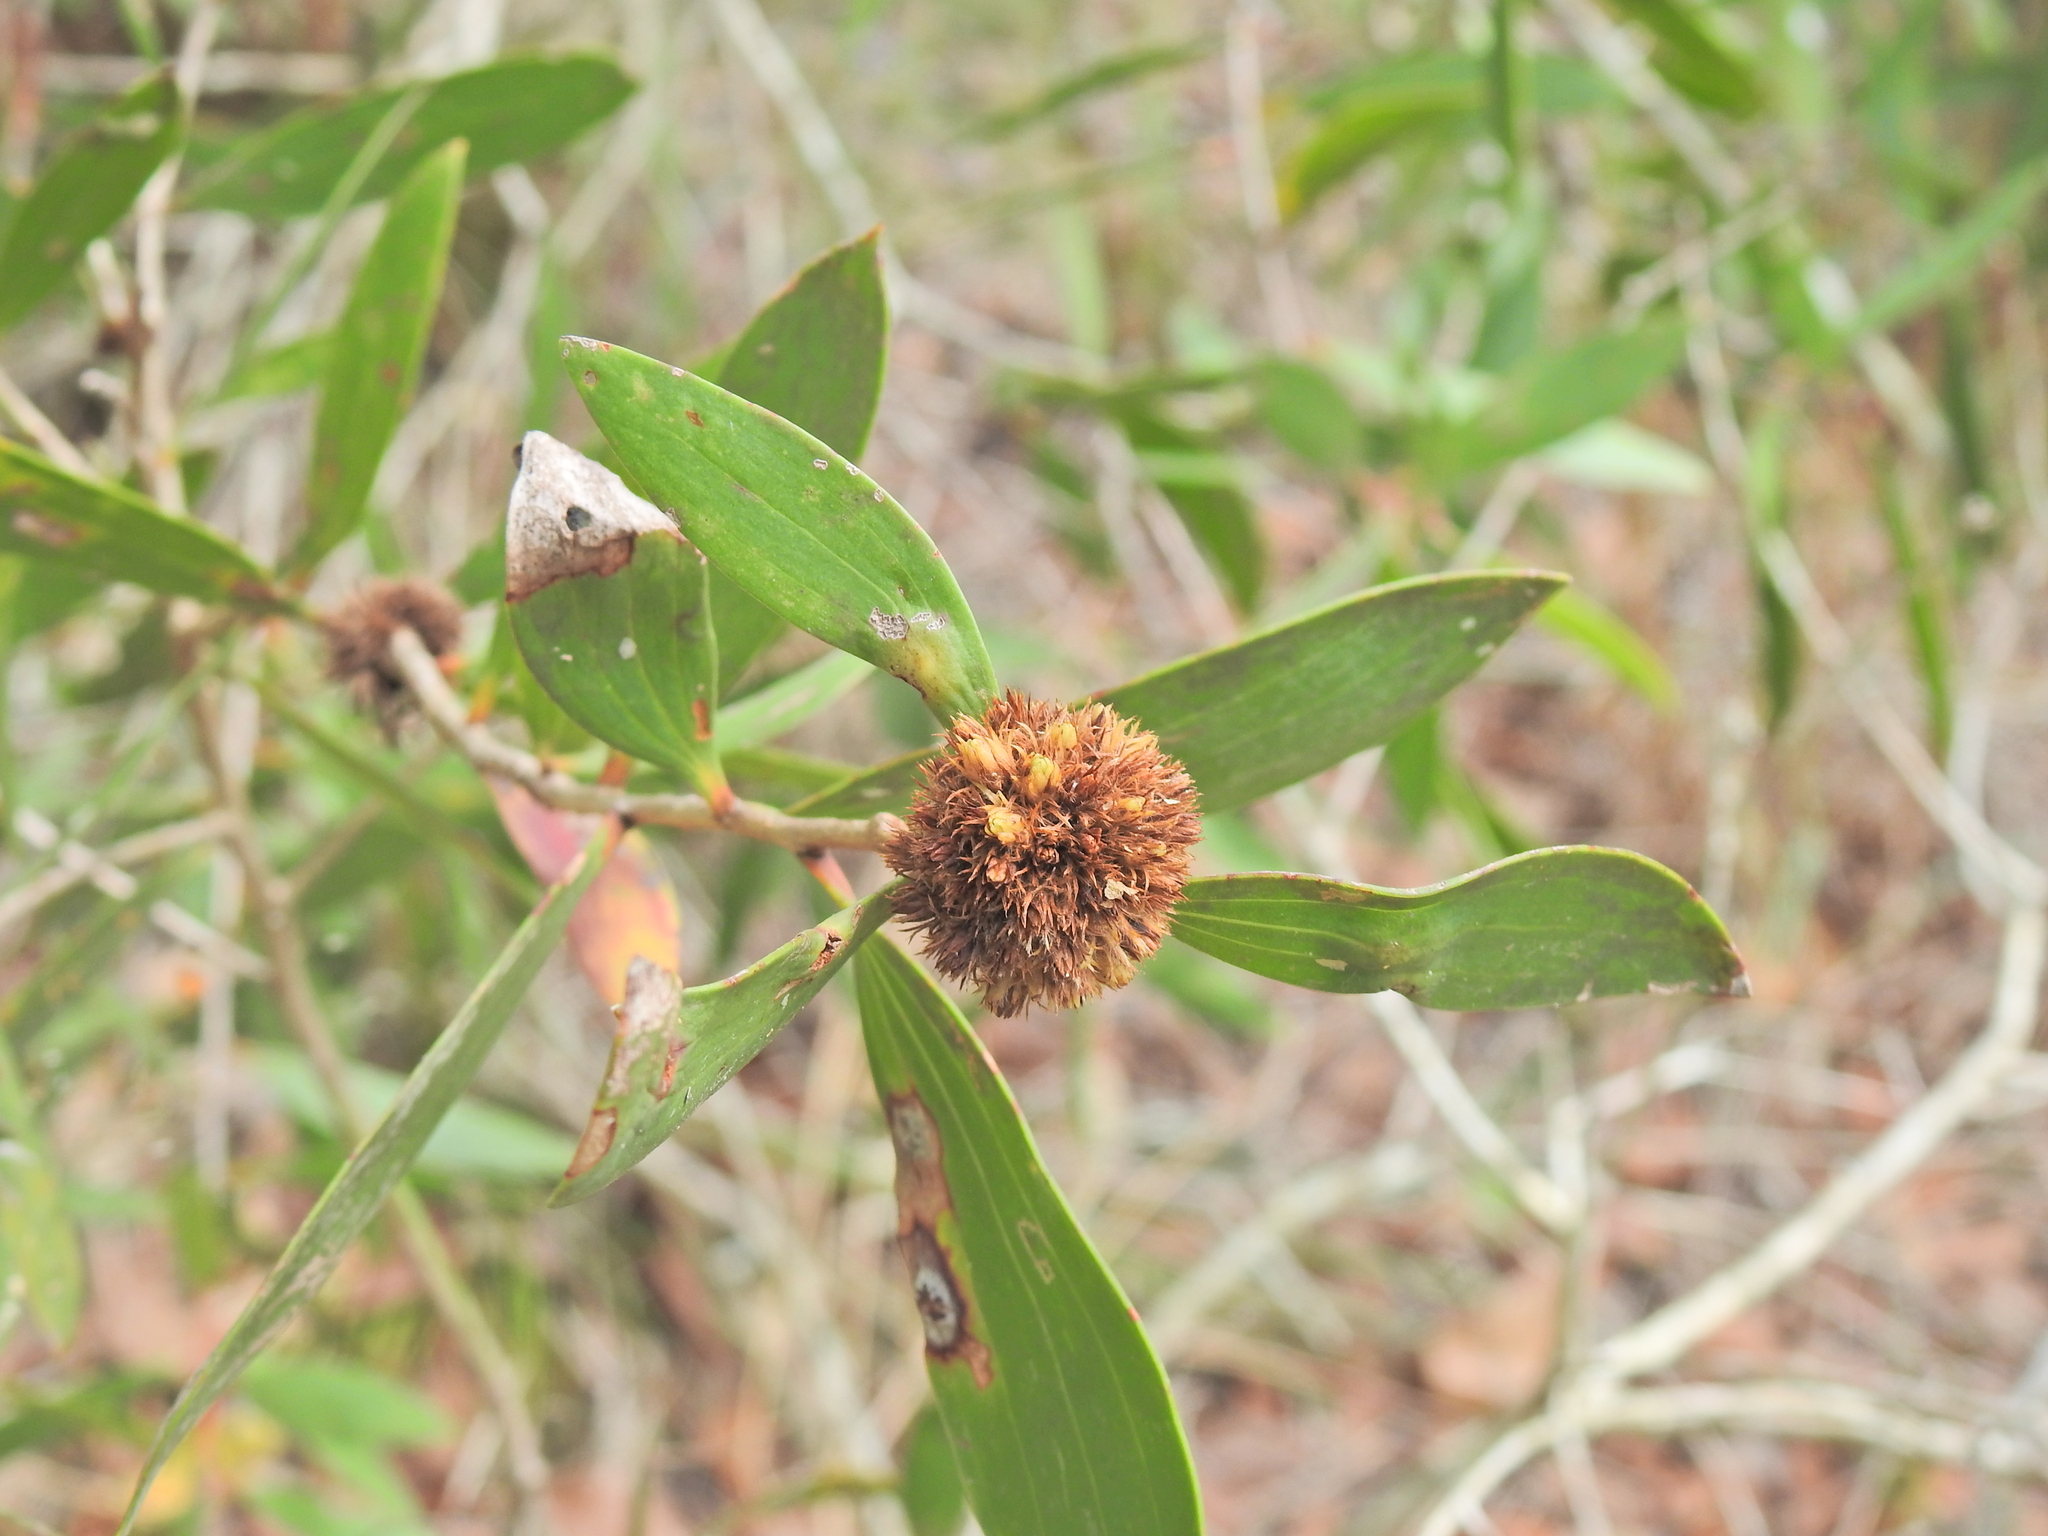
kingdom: Animalia
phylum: Arthropoda
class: Insecta
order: Hemiptera
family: Beesoniidae
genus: Beesonia
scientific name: Beesonia ferrugineus
